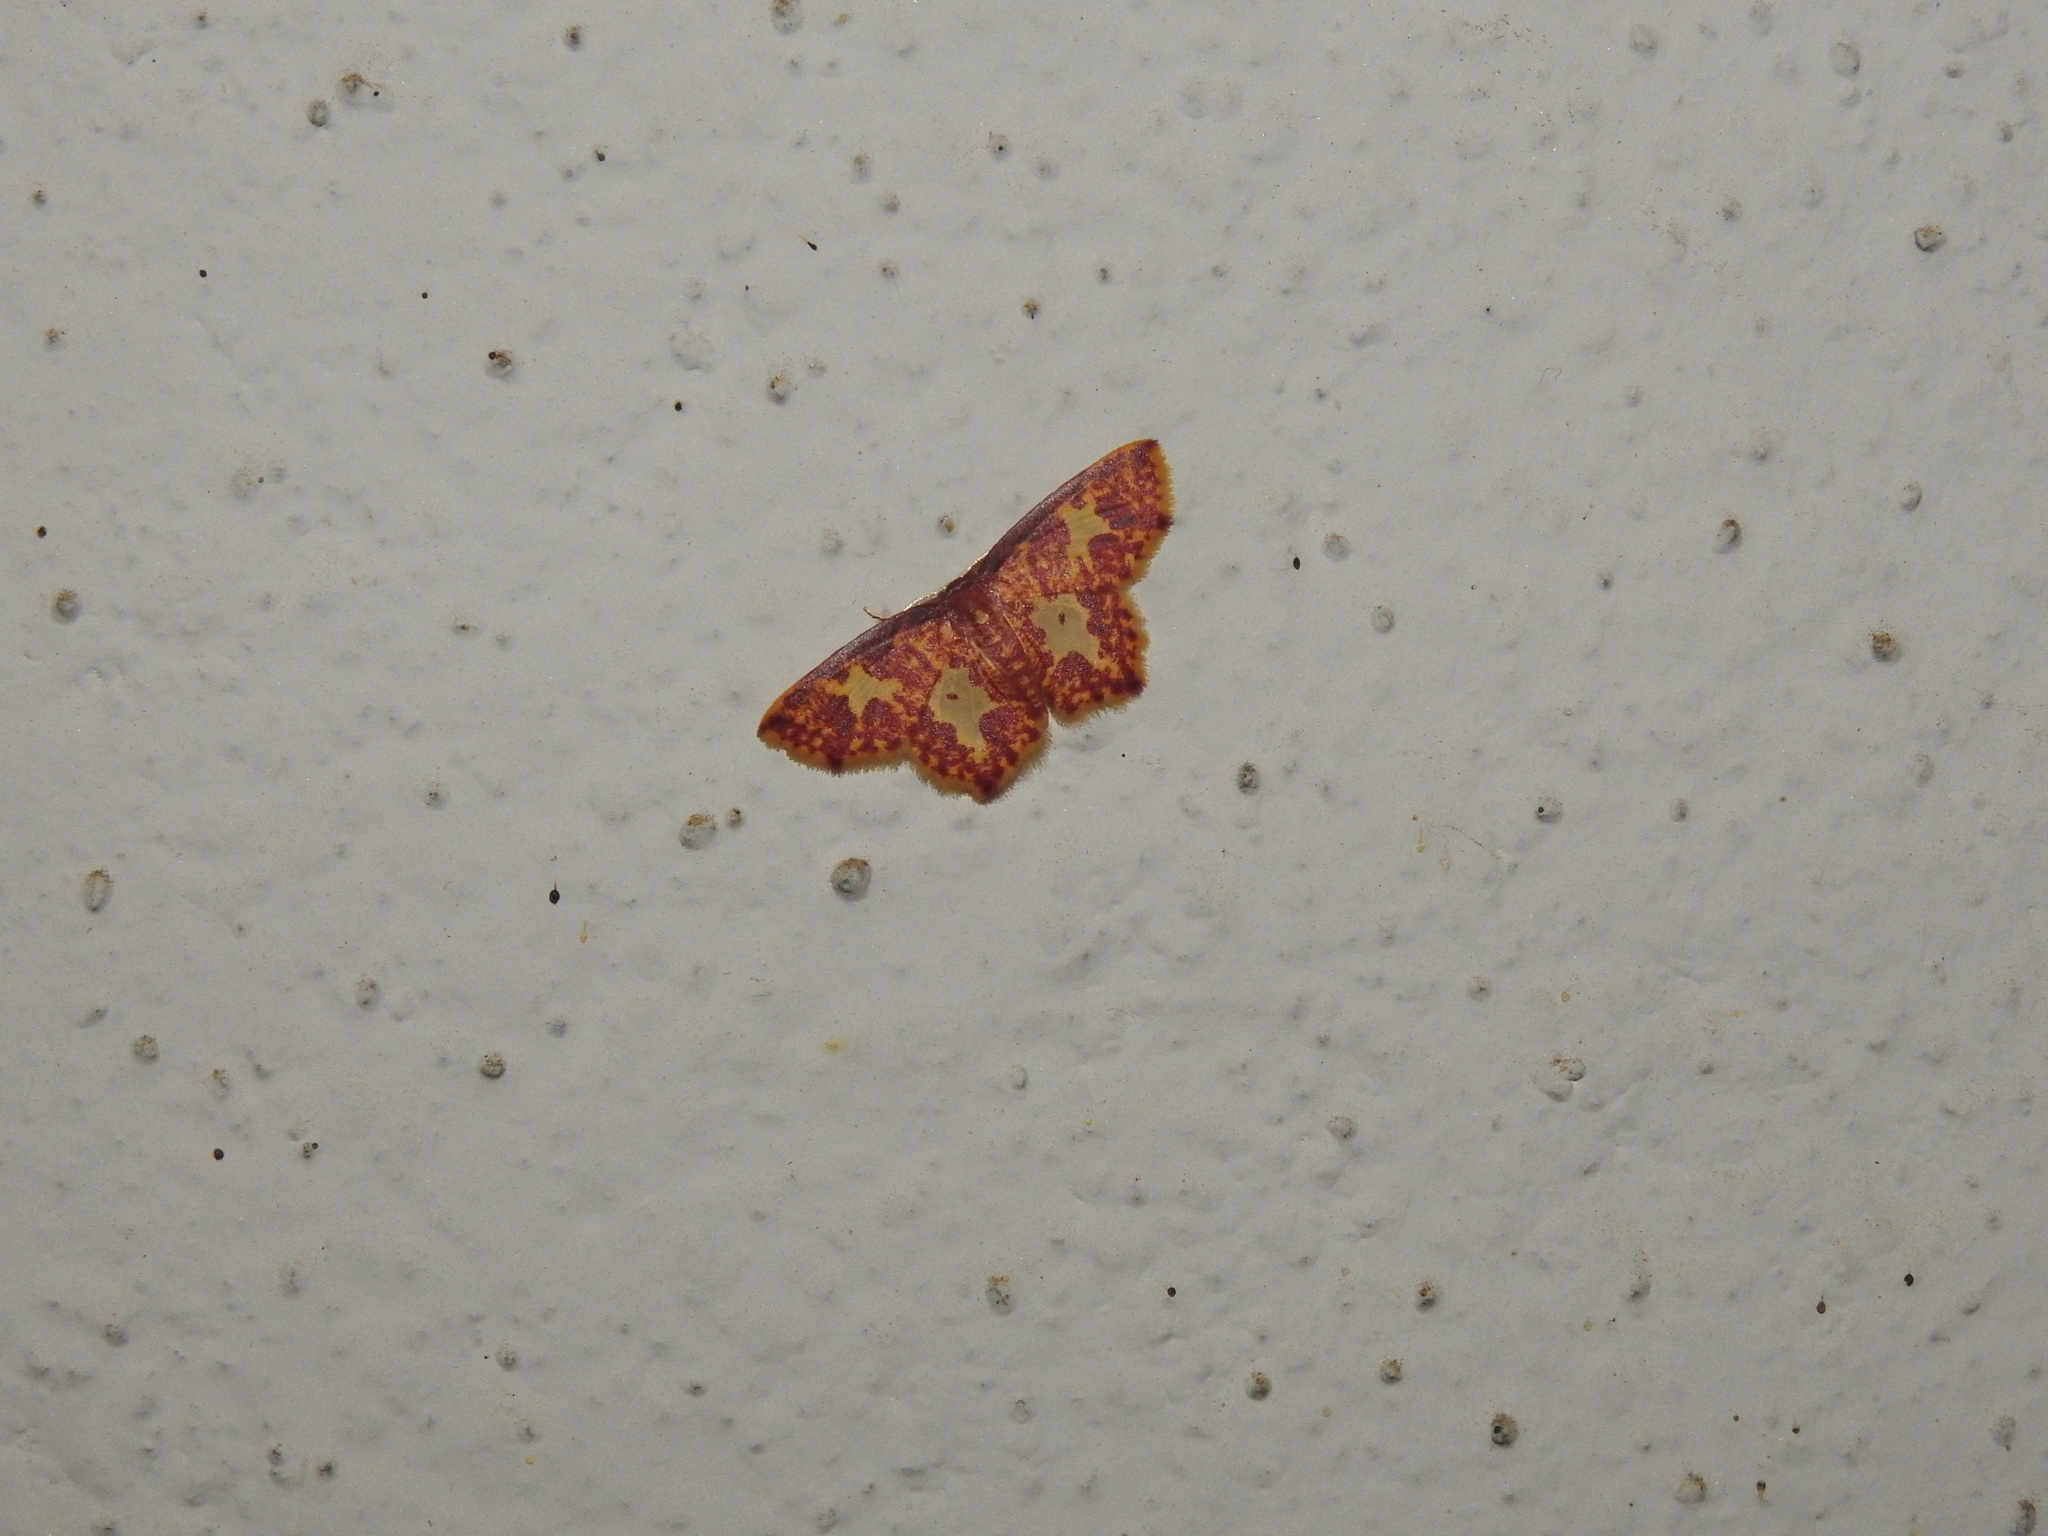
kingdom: Animalia
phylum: Arthropoda
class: Insecta
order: Lepidoptera
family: Geometridae
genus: Chrysocraspeda
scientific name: Chrysocraspeda faganaria
